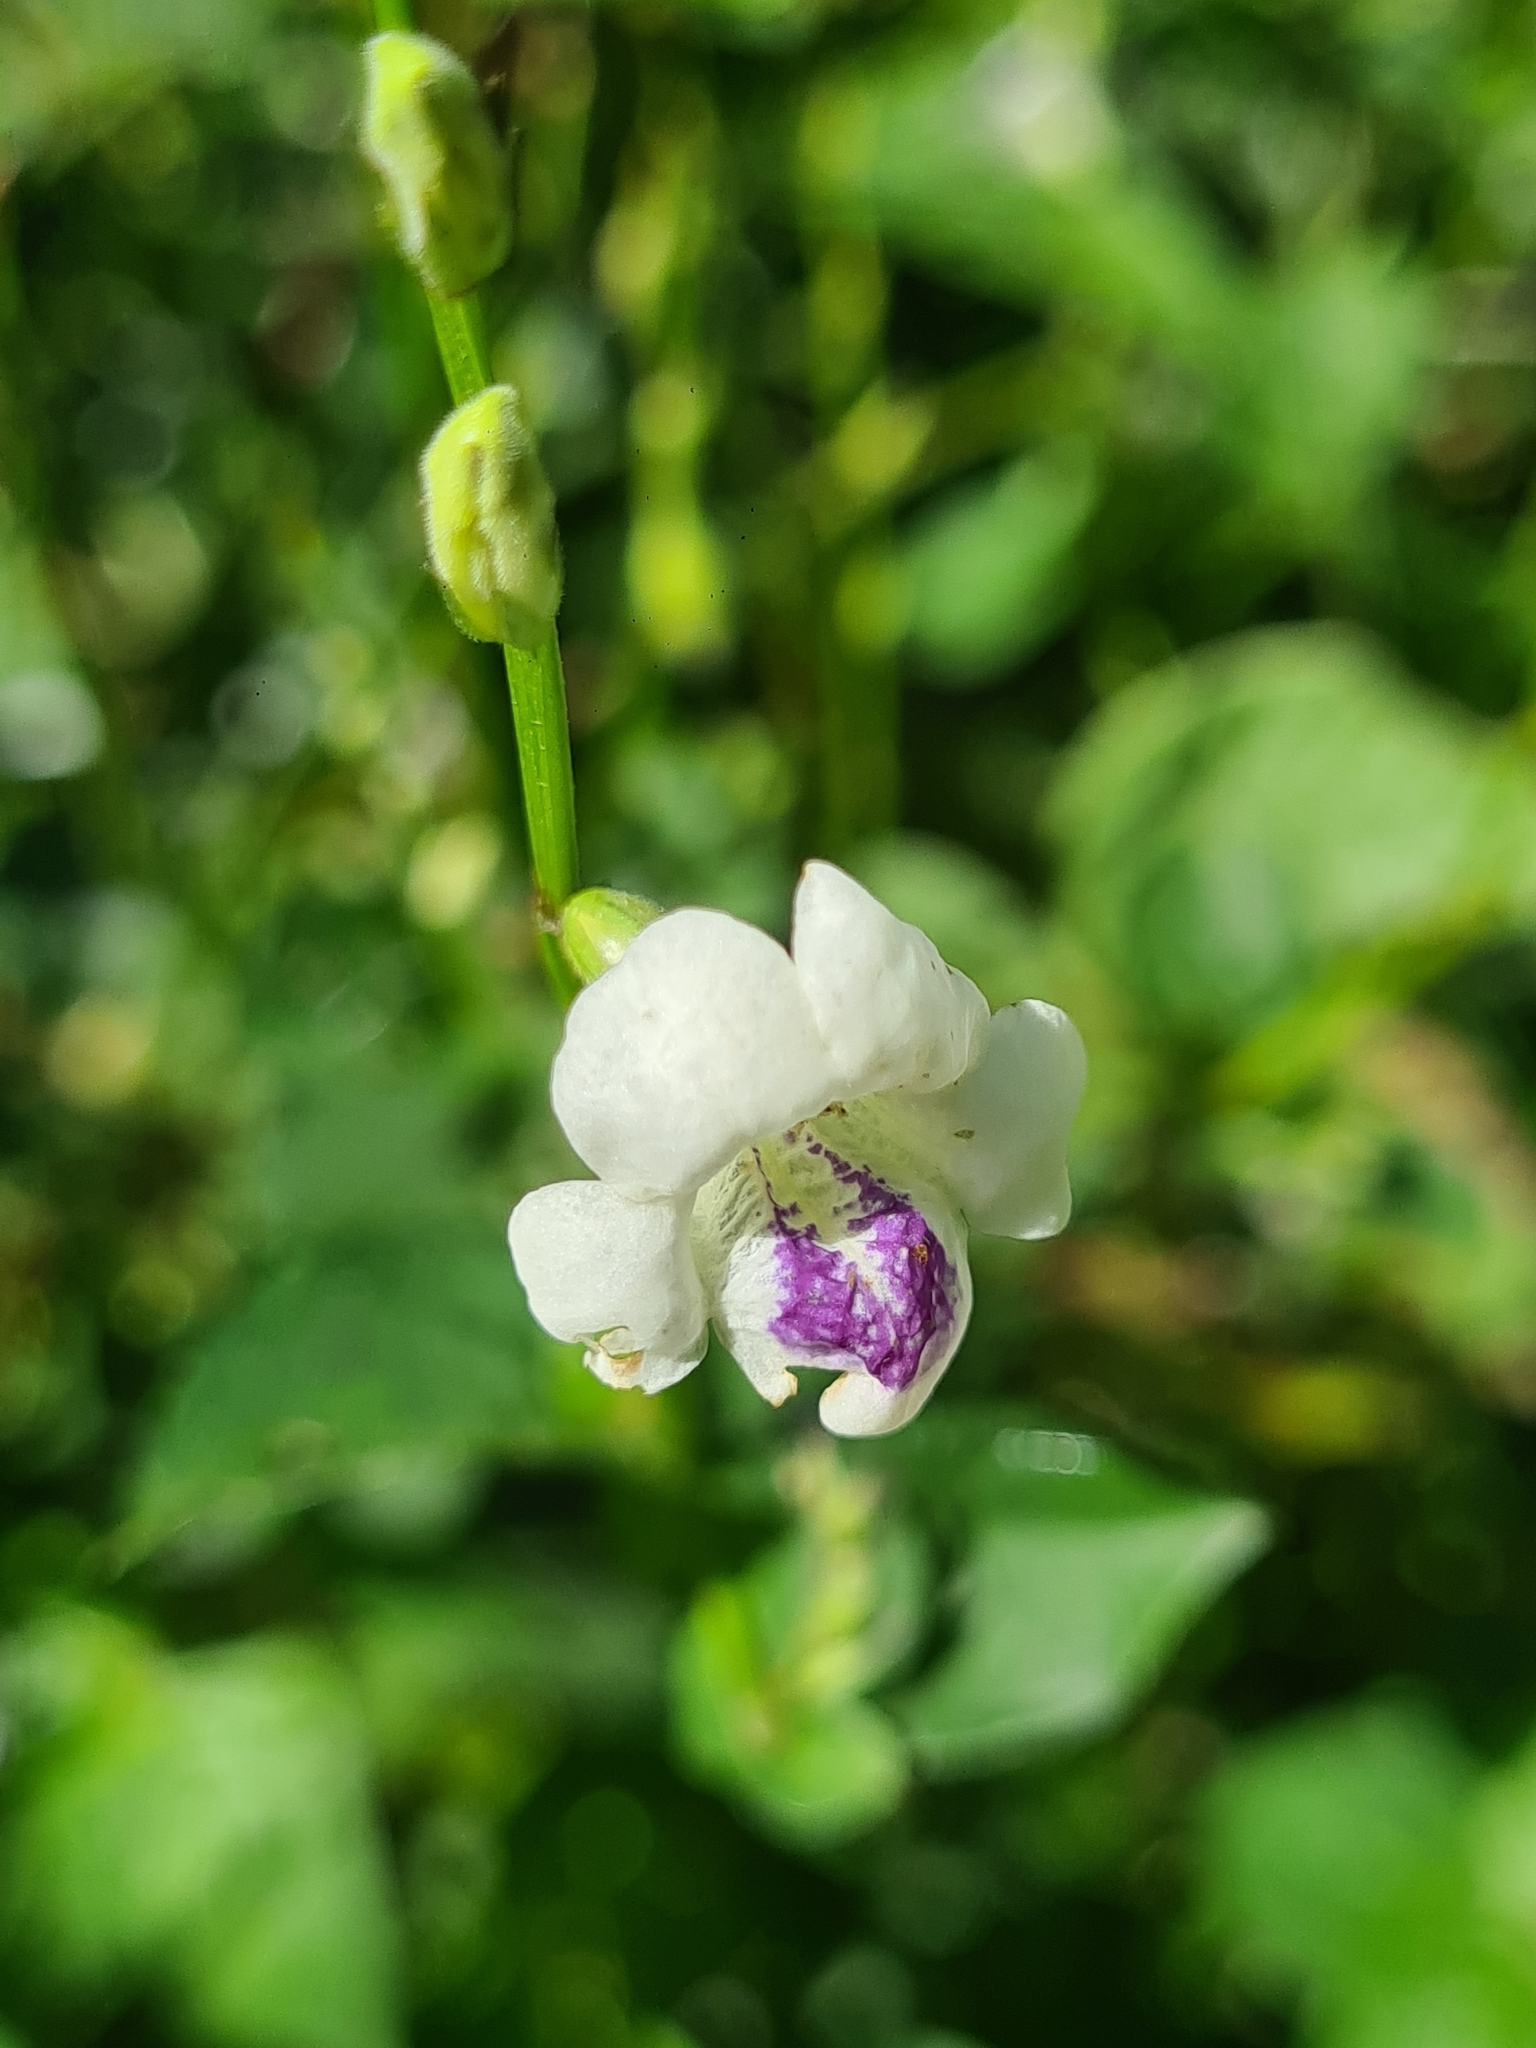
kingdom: Plantae
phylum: Tracheophyta
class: Magnoliopsida
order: Lamiales
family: Acanthaceae
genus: Asystasia
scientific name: Asystasia intrusa
